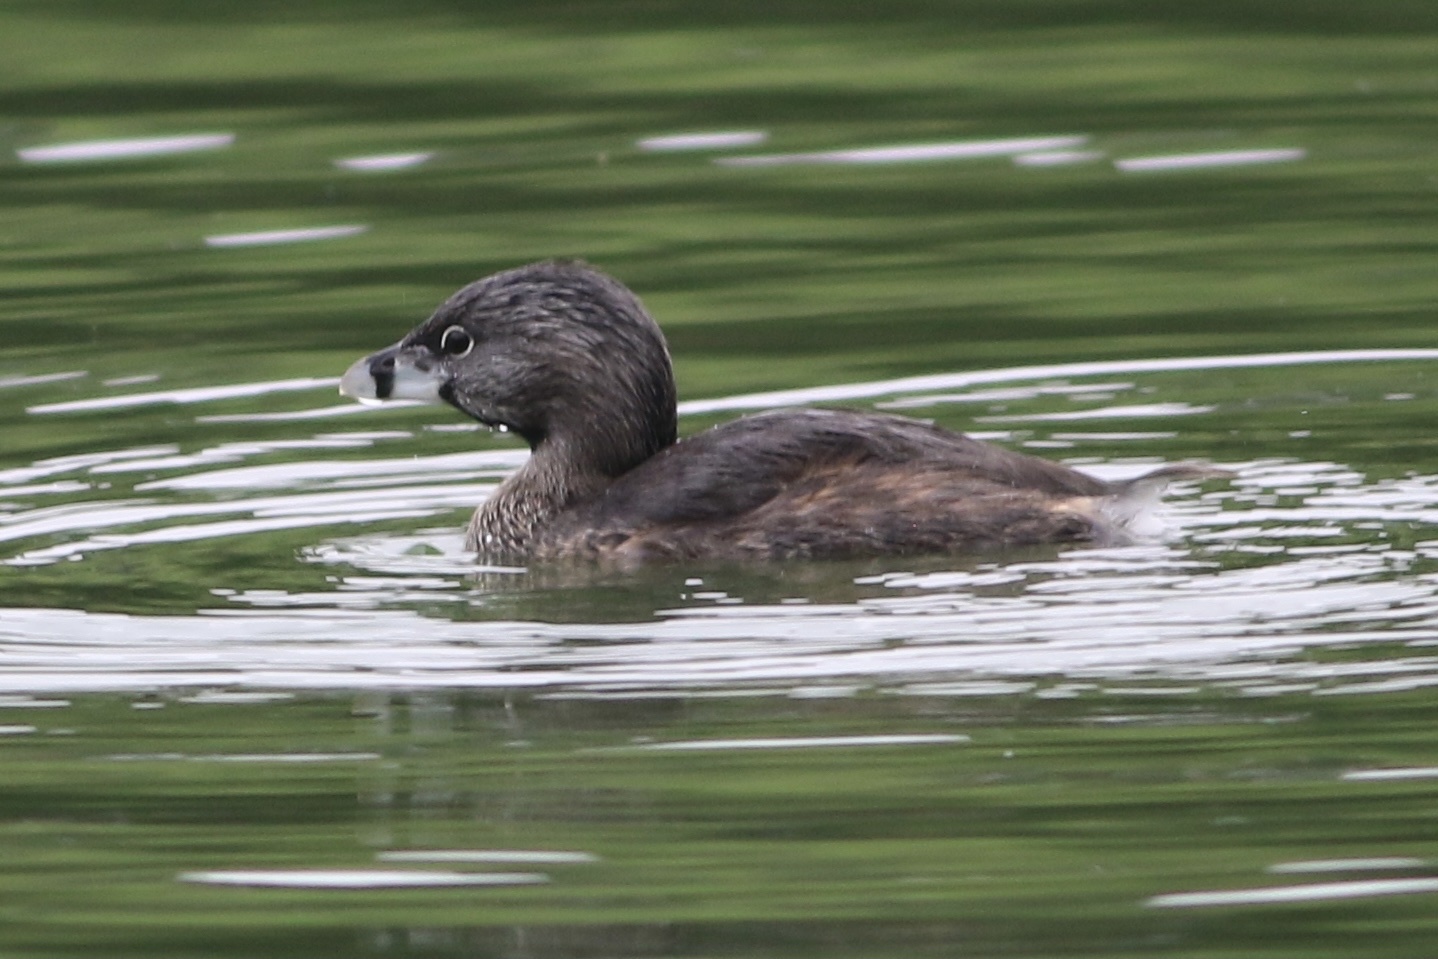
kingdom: Animalia
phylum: Chordata
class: Aves
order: Podicipediformes
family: Podicipedidae
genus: Podilymbus
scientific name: Podilymbus podiceps
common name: Pied-billed grebe
